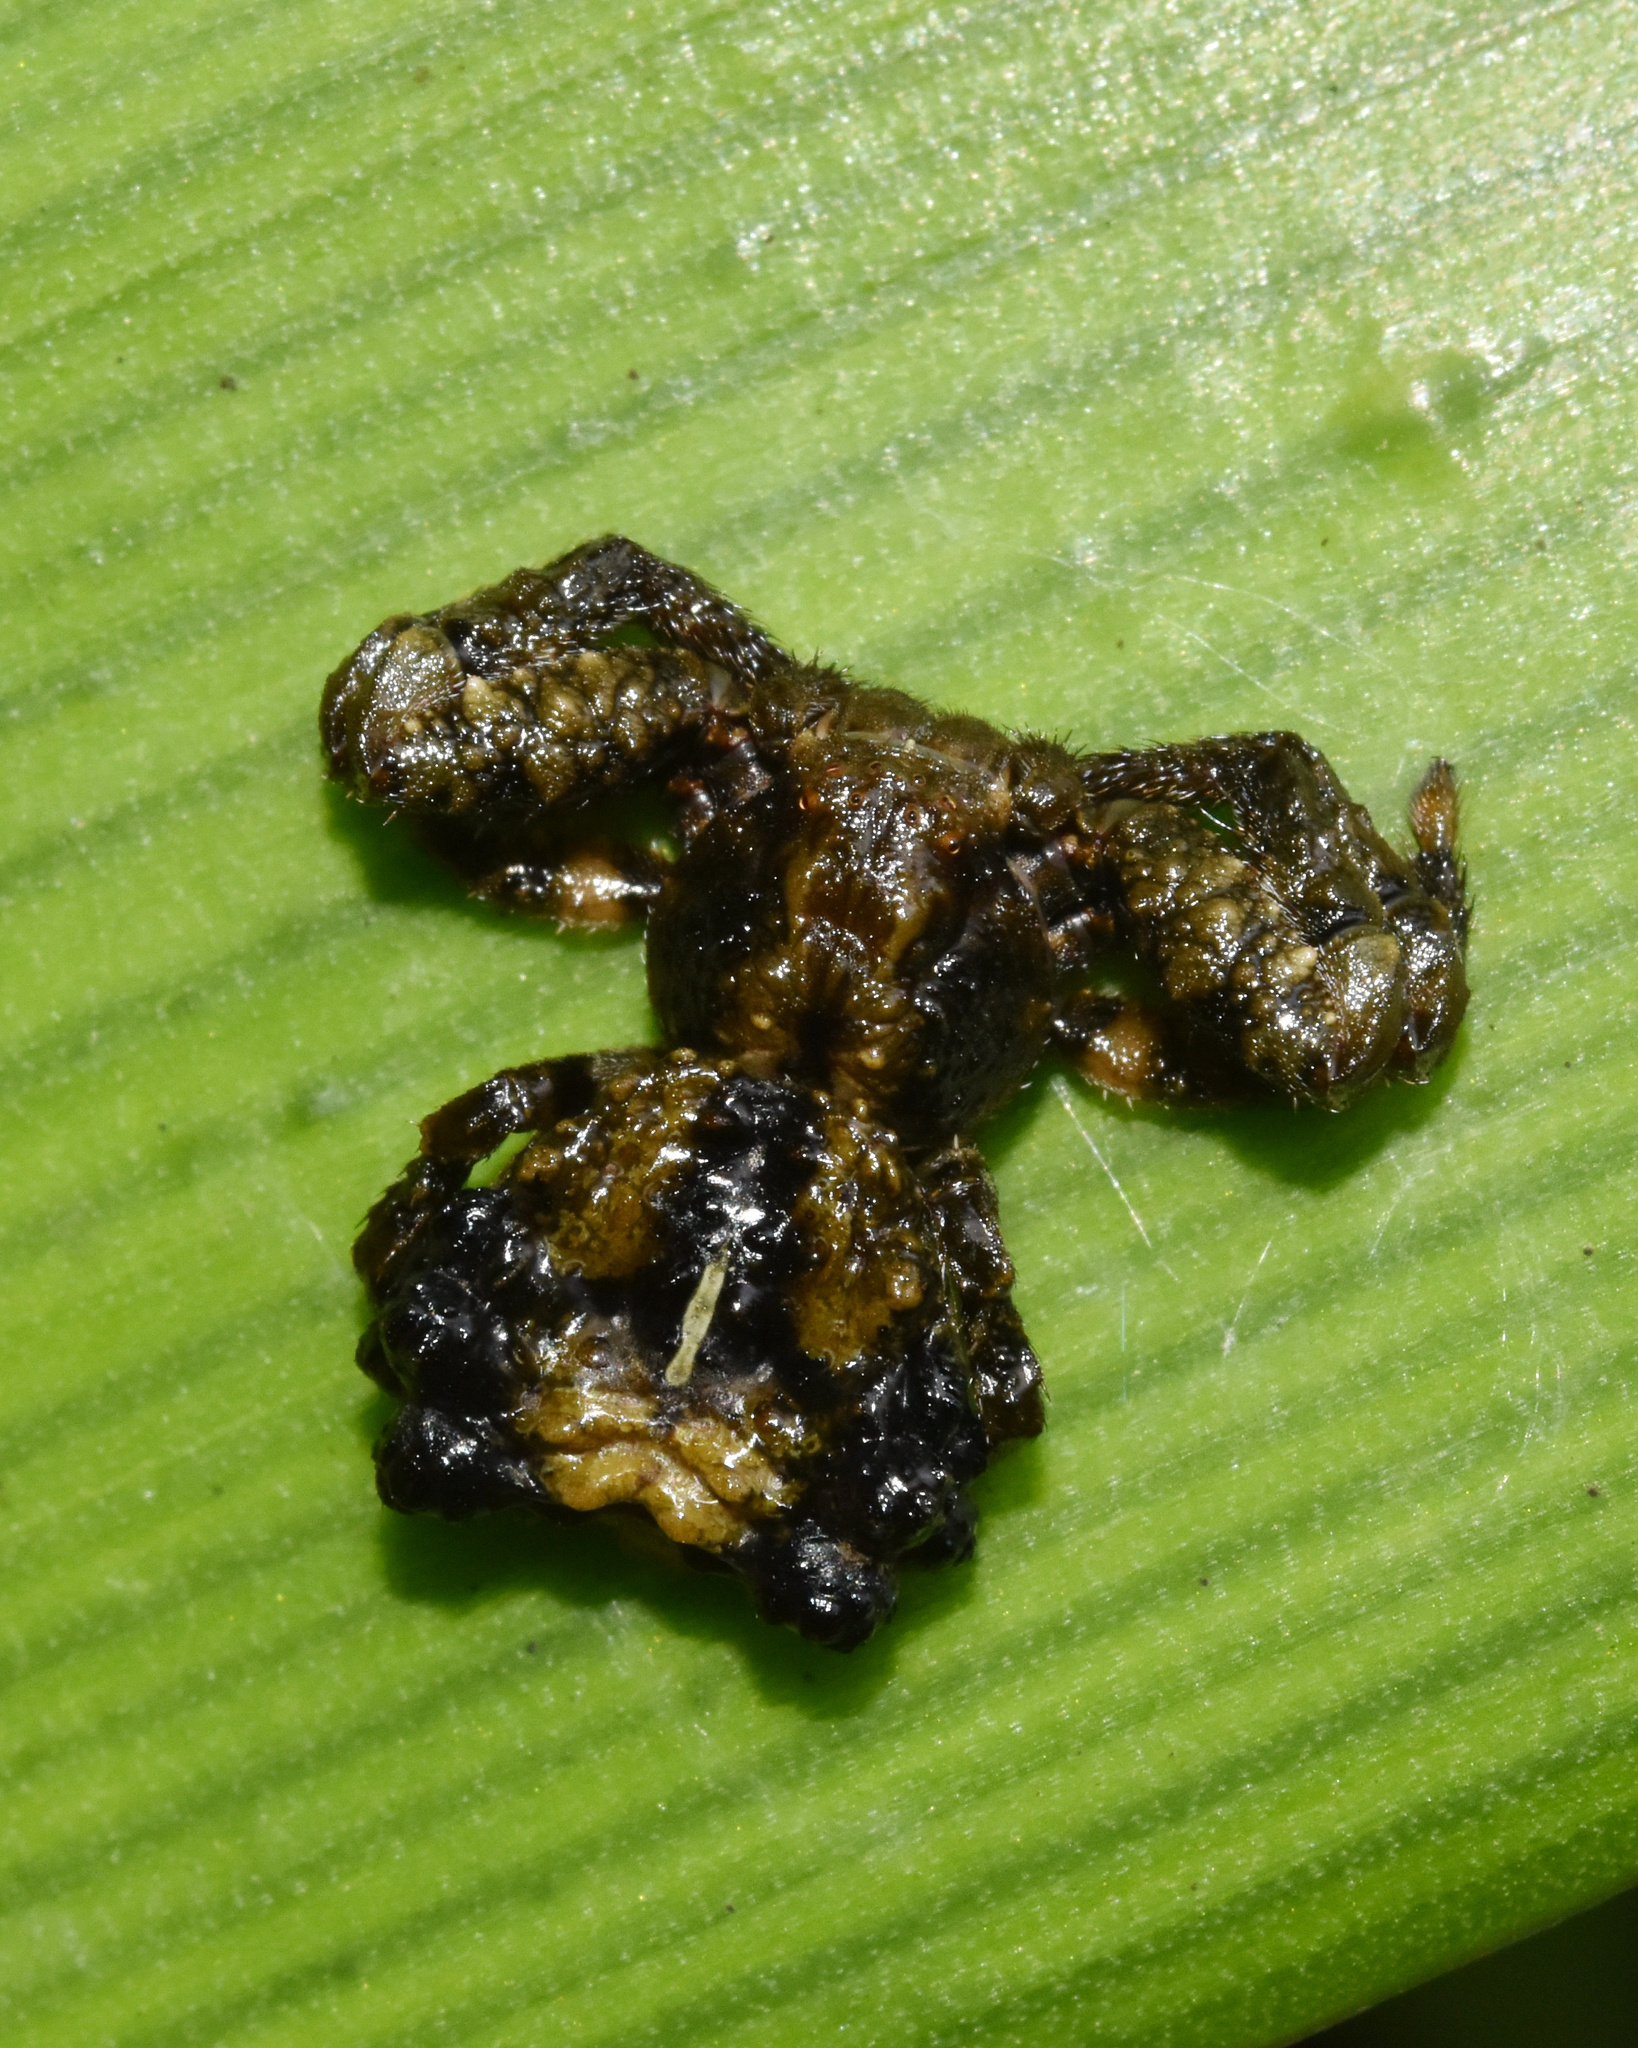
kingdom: Animalia
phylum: Arthropoda
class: Arachnida
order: Araneae
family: Thomisidae
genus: Phrynarachne
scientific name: Phrynarachne rugosa
